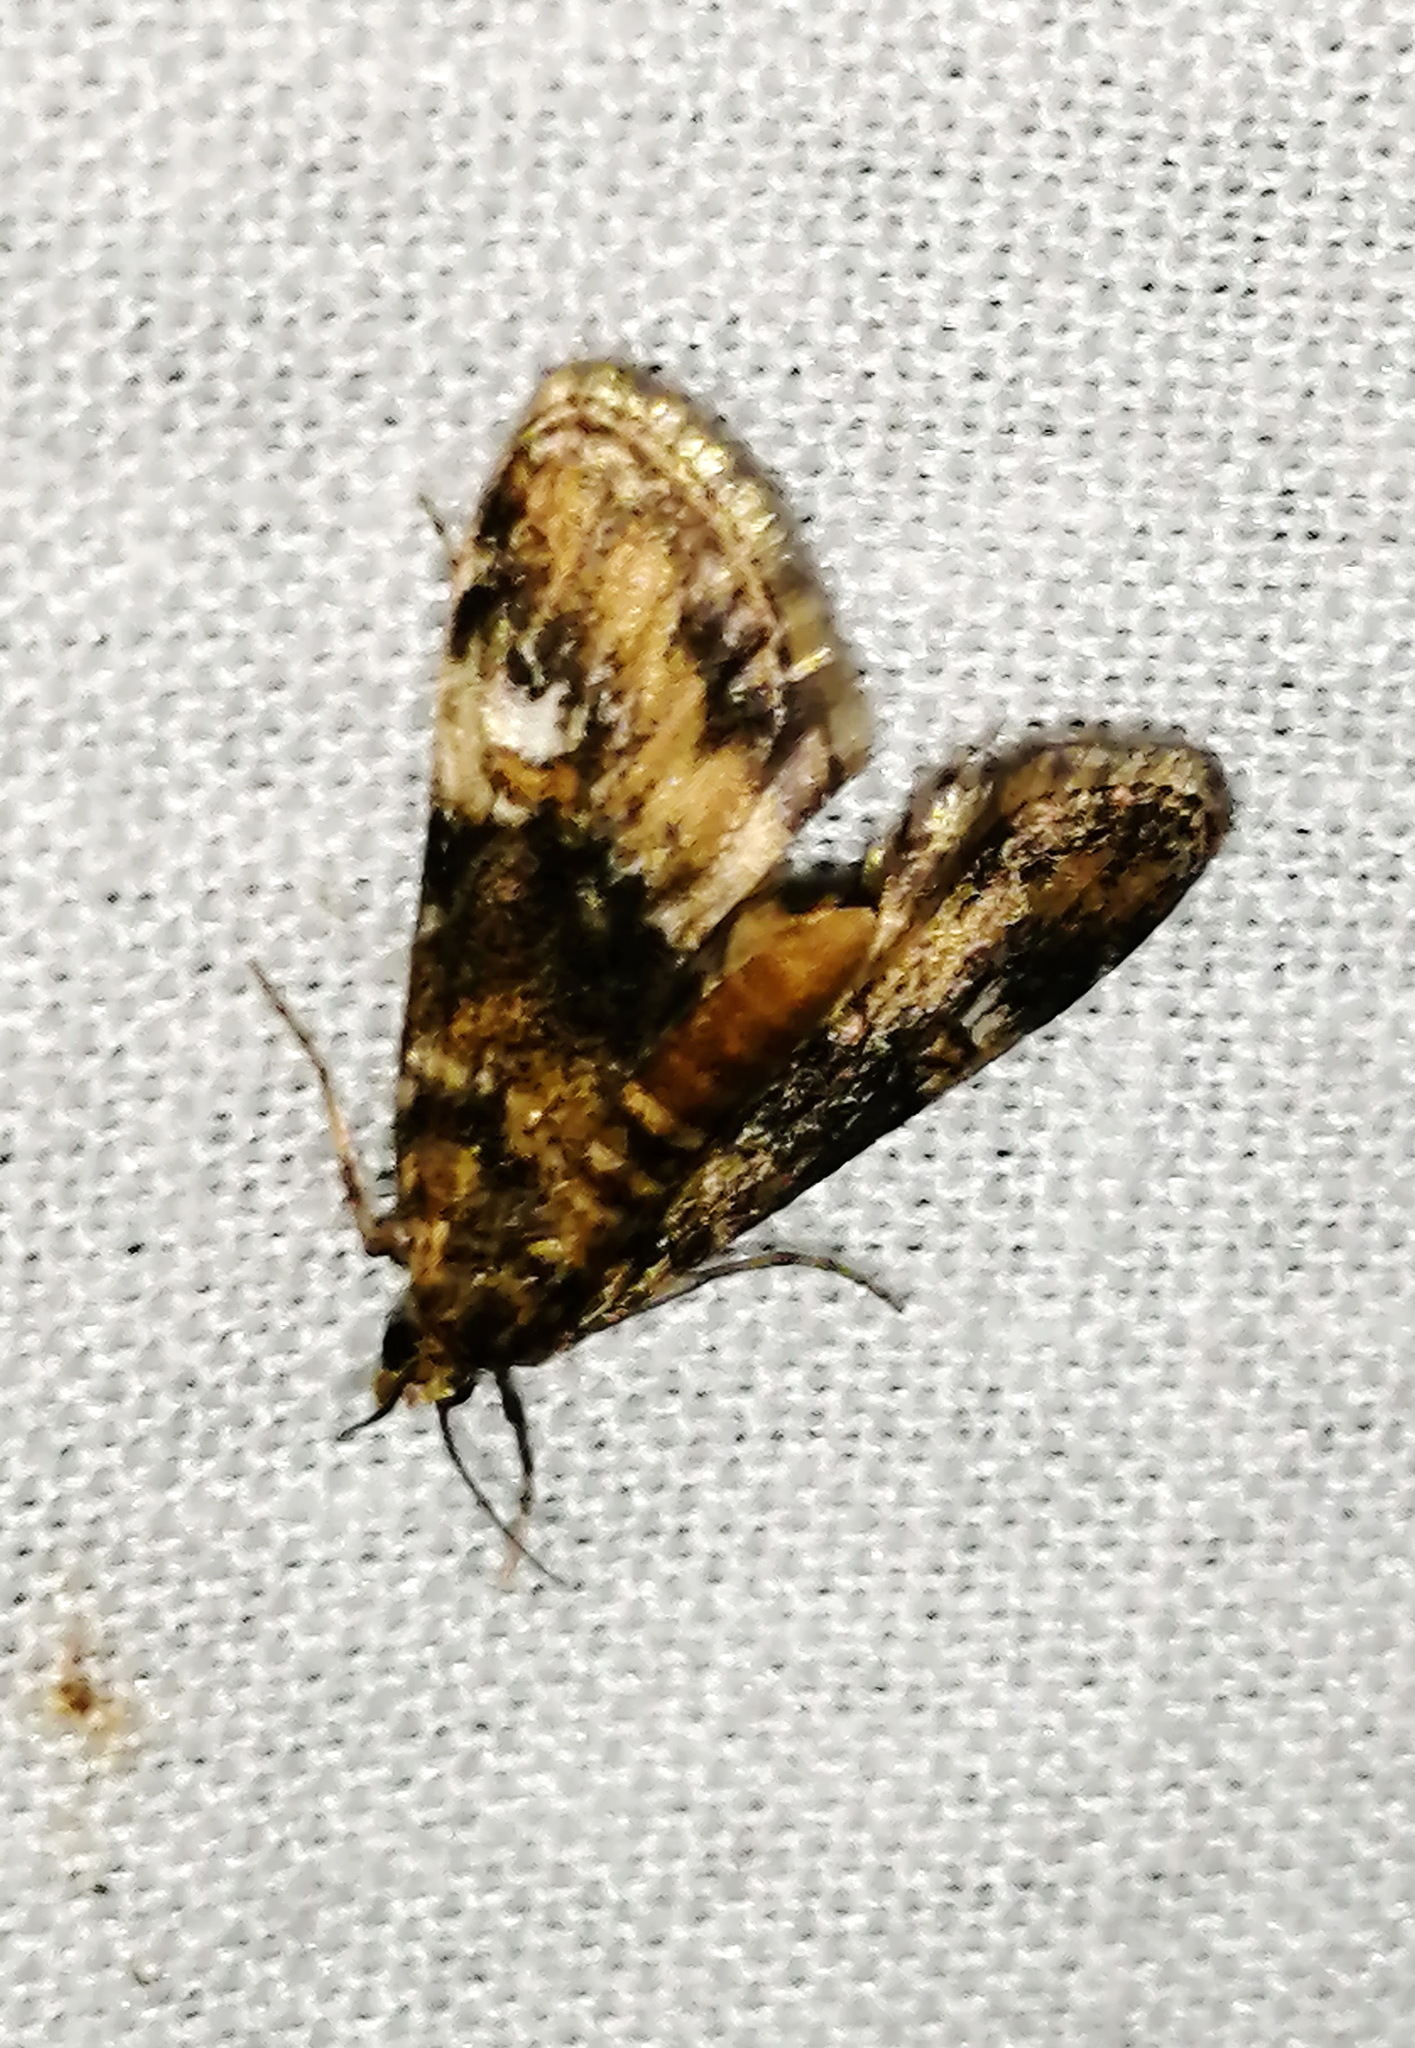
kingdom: Animalia
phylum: Arthropoda
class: Insecta
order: Lepidoptera
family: Crambidae
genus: Elophila
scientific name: Elophila obliteralis
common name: Waterlily leafcutter moth
